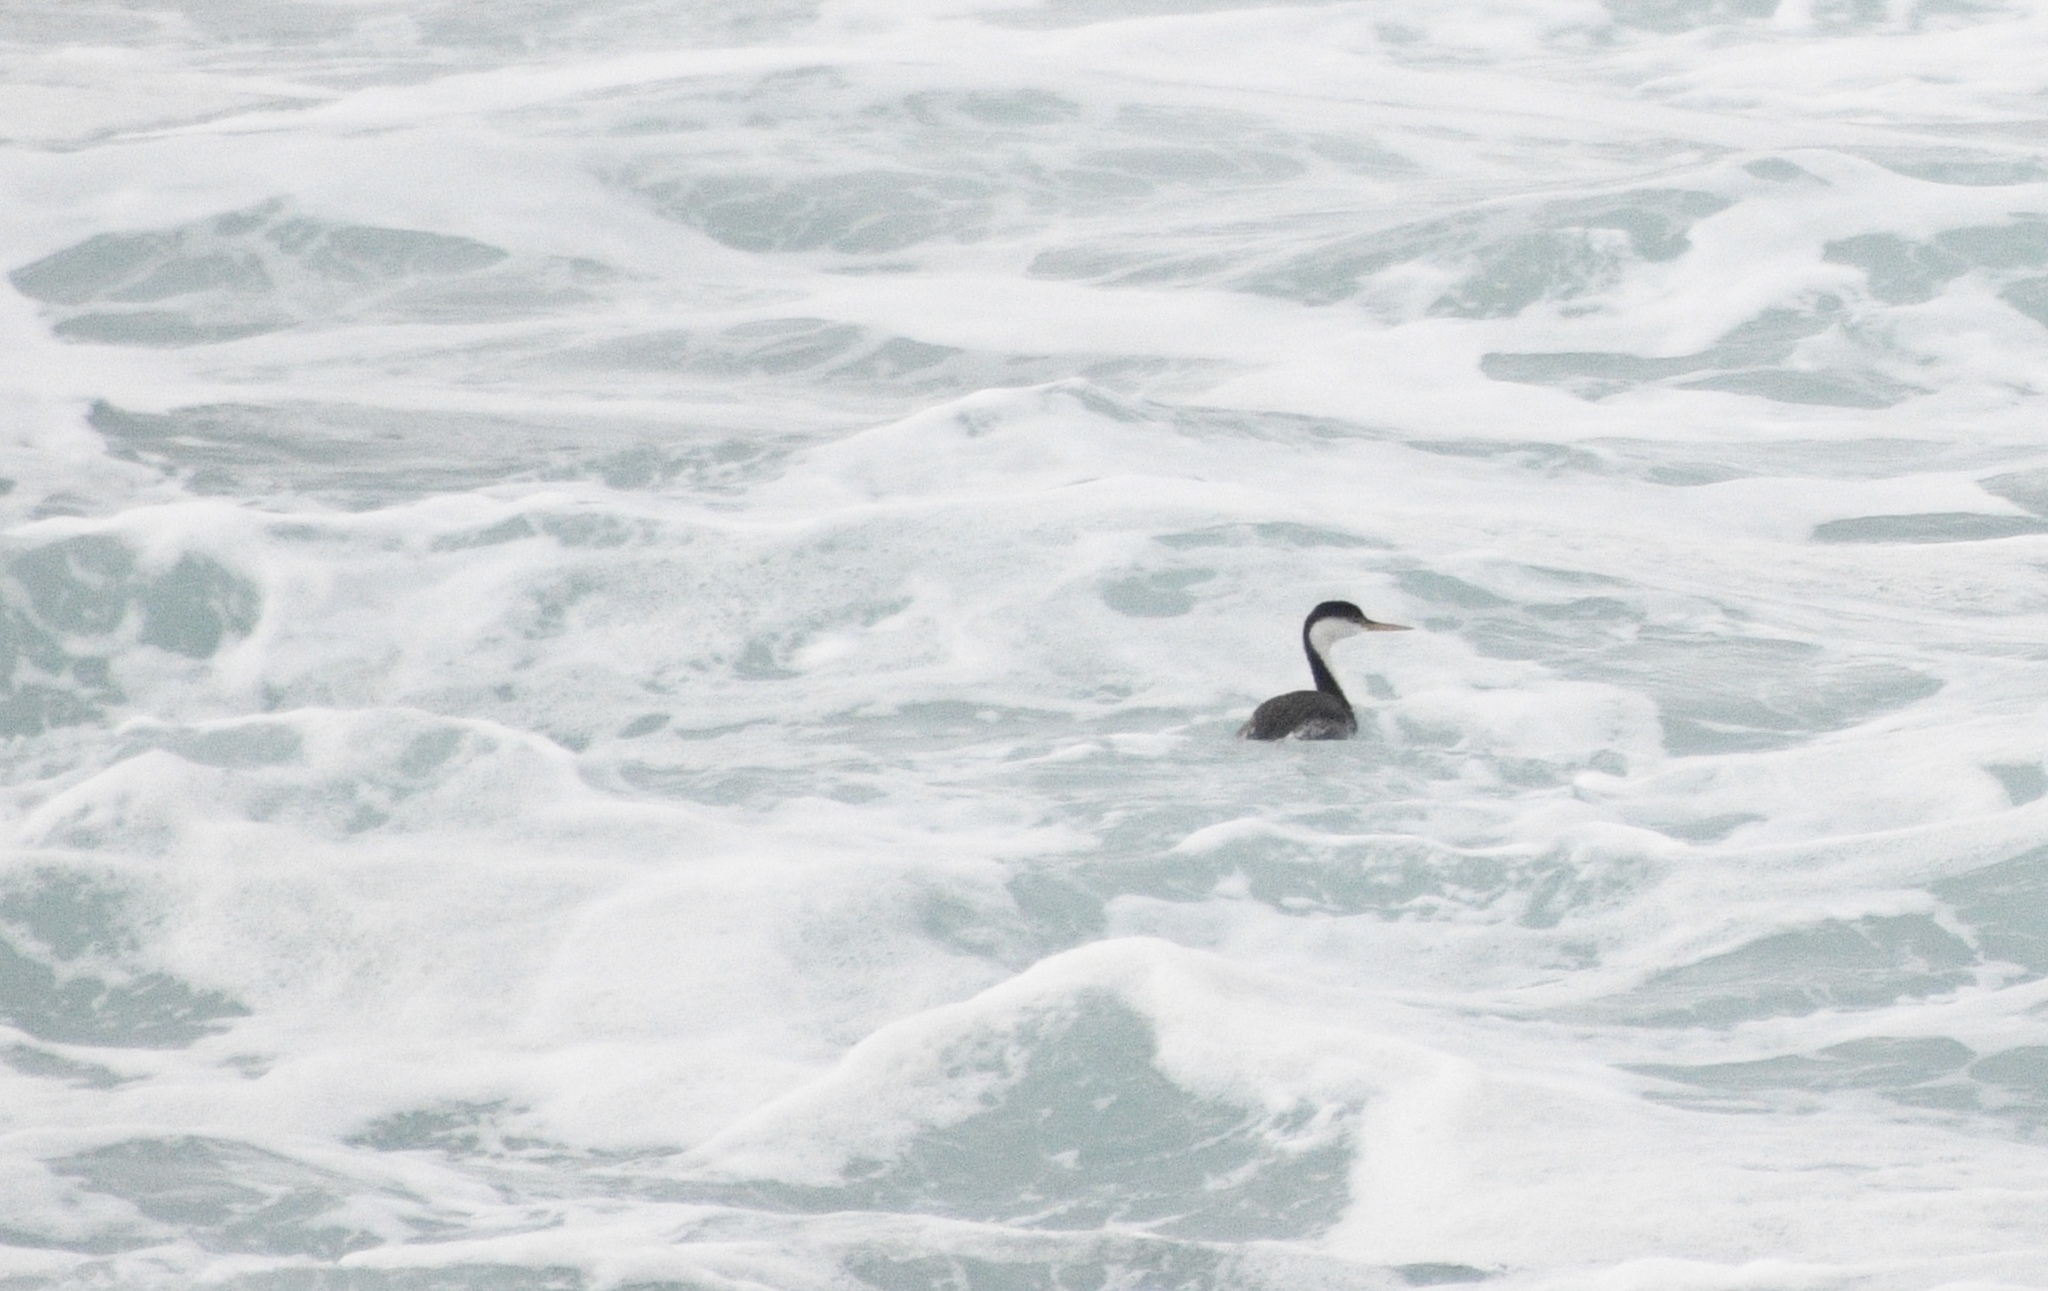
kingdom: Animalia
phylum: Chordata
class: Aves
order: Podicipediformes
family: Podicipedidae
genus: Aechmophorus
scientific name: Aechmophorus occidentalis
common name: Western grebe
